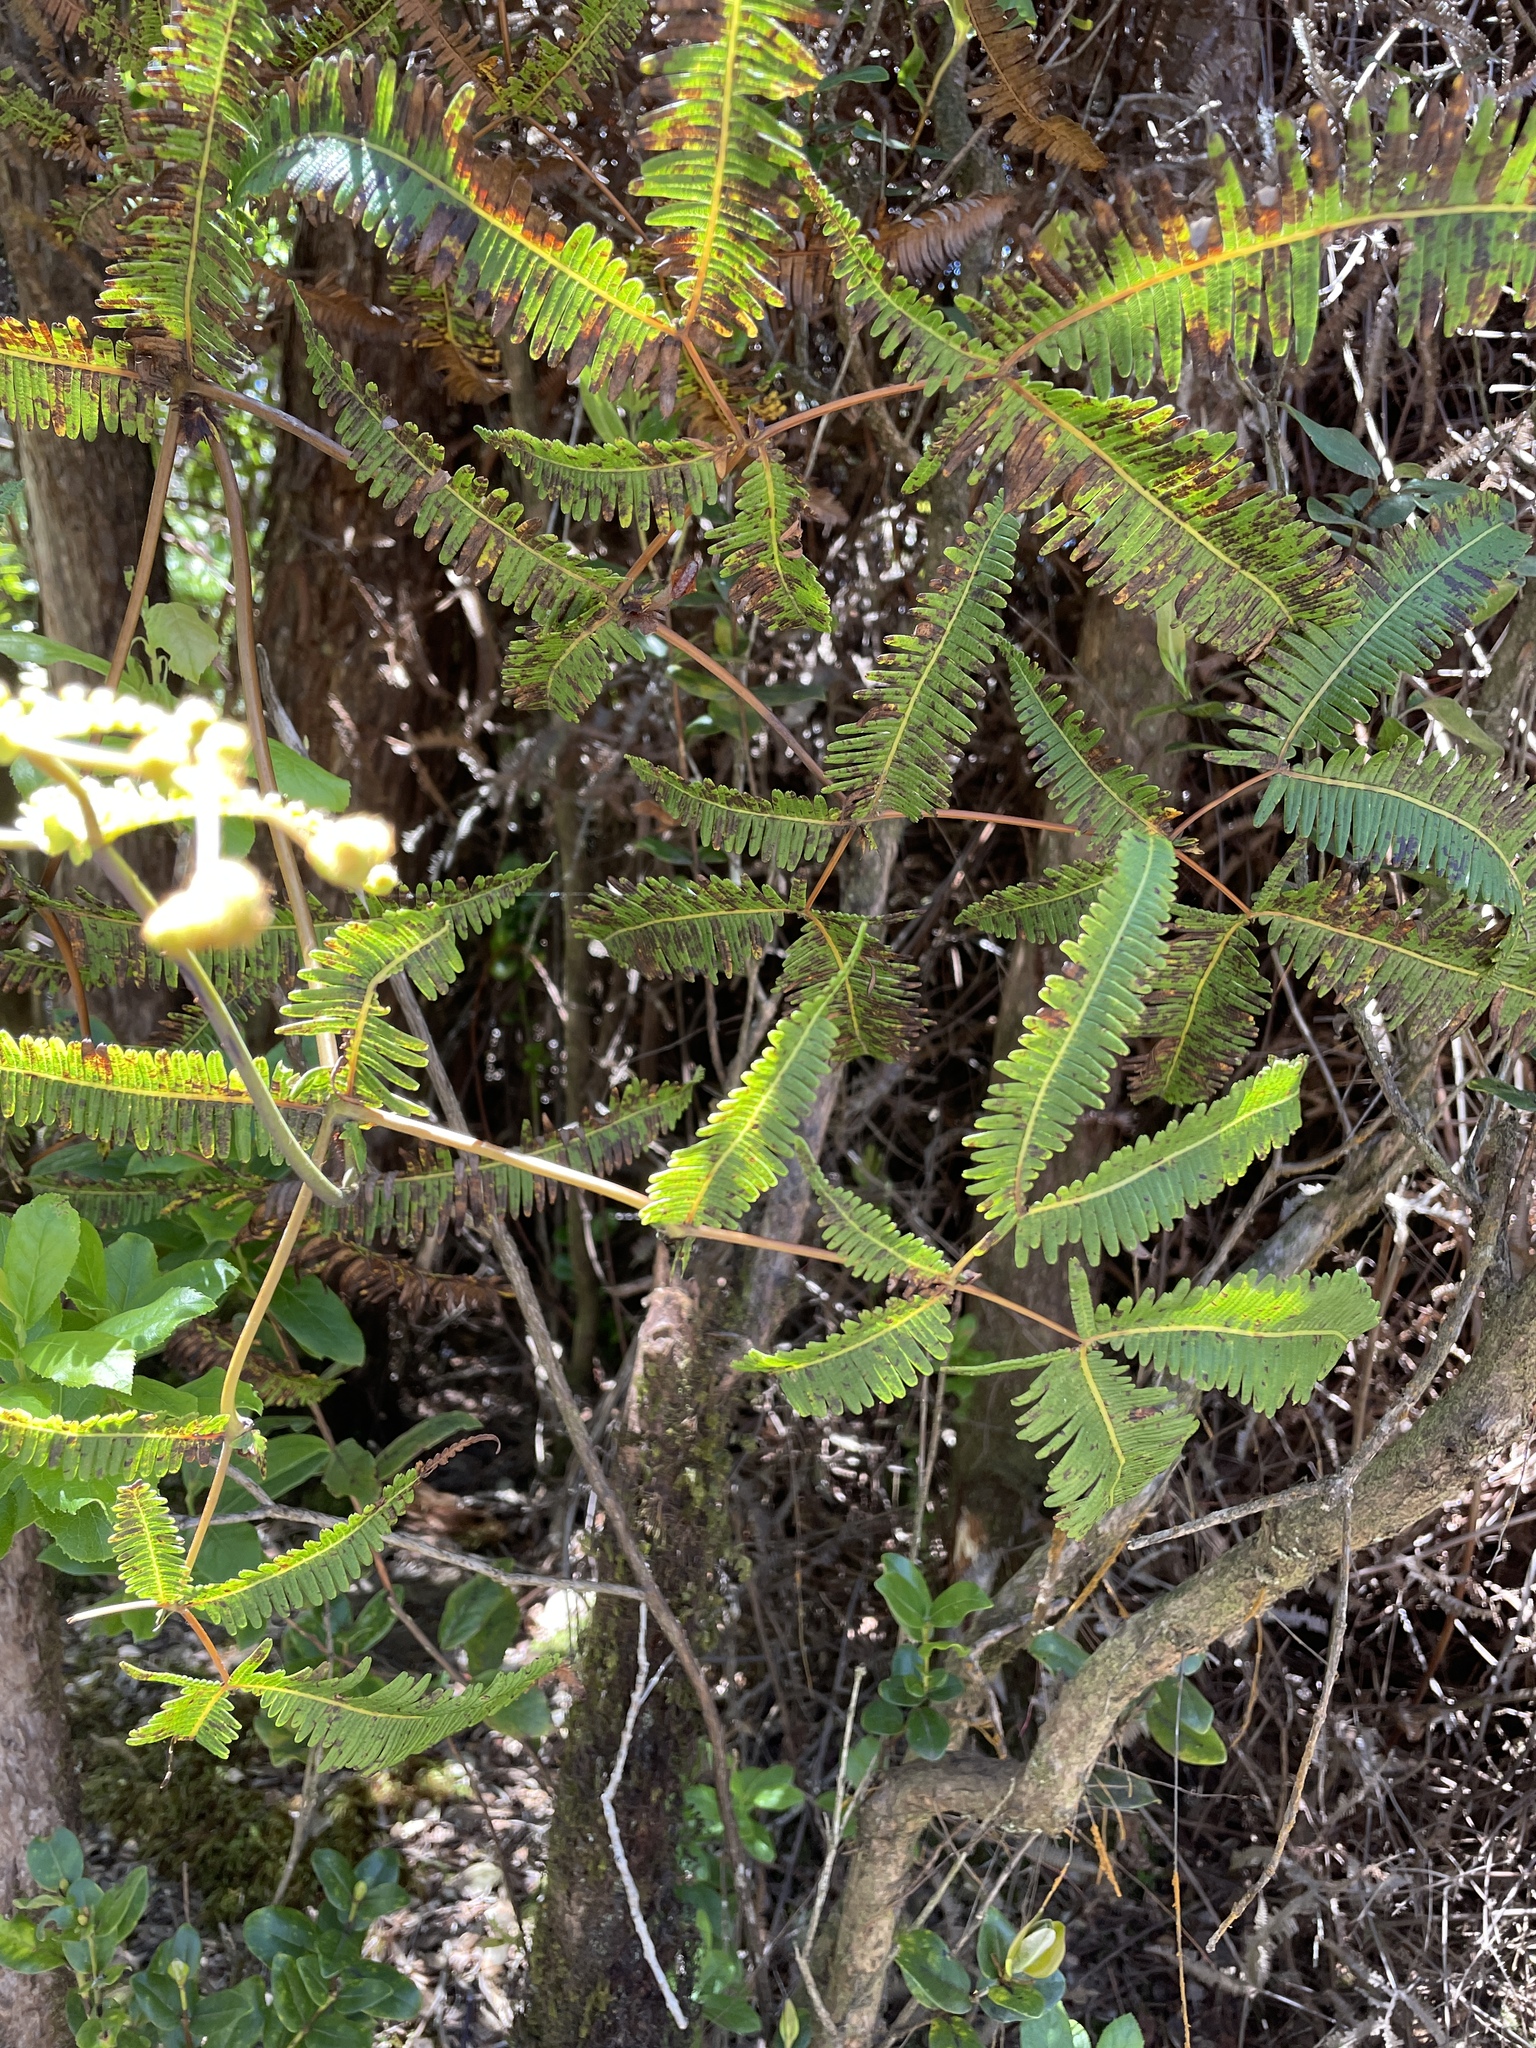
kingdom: Plantae
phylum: Tracheophyta
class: Polypodiopsida
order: Gleicheniales
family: Gleicheniaceae
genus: Dicranopteris
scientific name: Dicranopteris linearis
